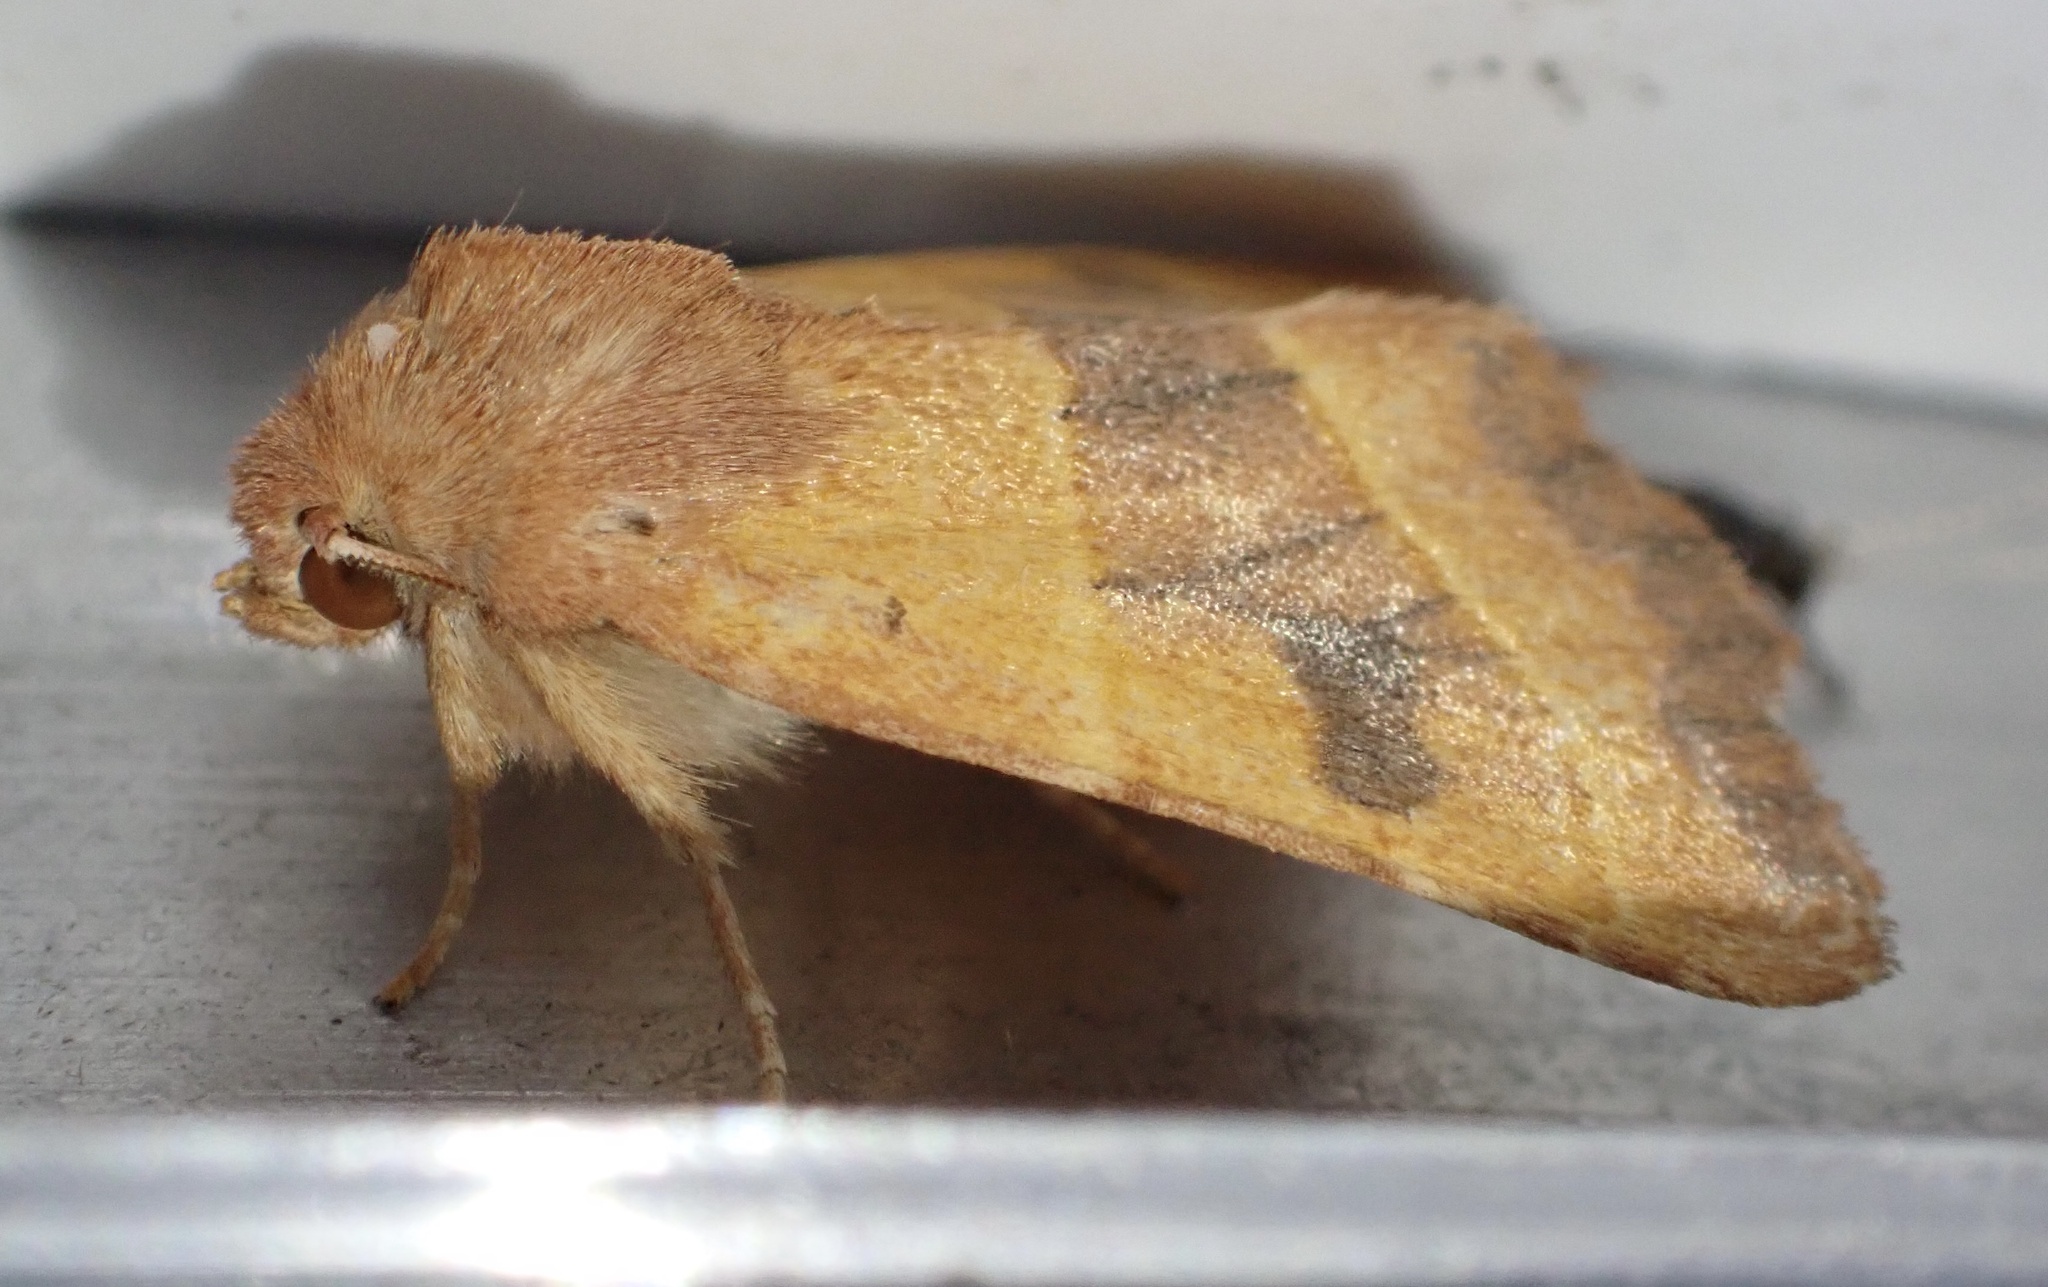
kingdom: Animalia
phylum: Arthropoda
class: Insecta
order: Lepidoptera
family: Noctuidae
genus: Atethmia
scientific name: Atethmia centrago
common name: Centre-barred sallow
